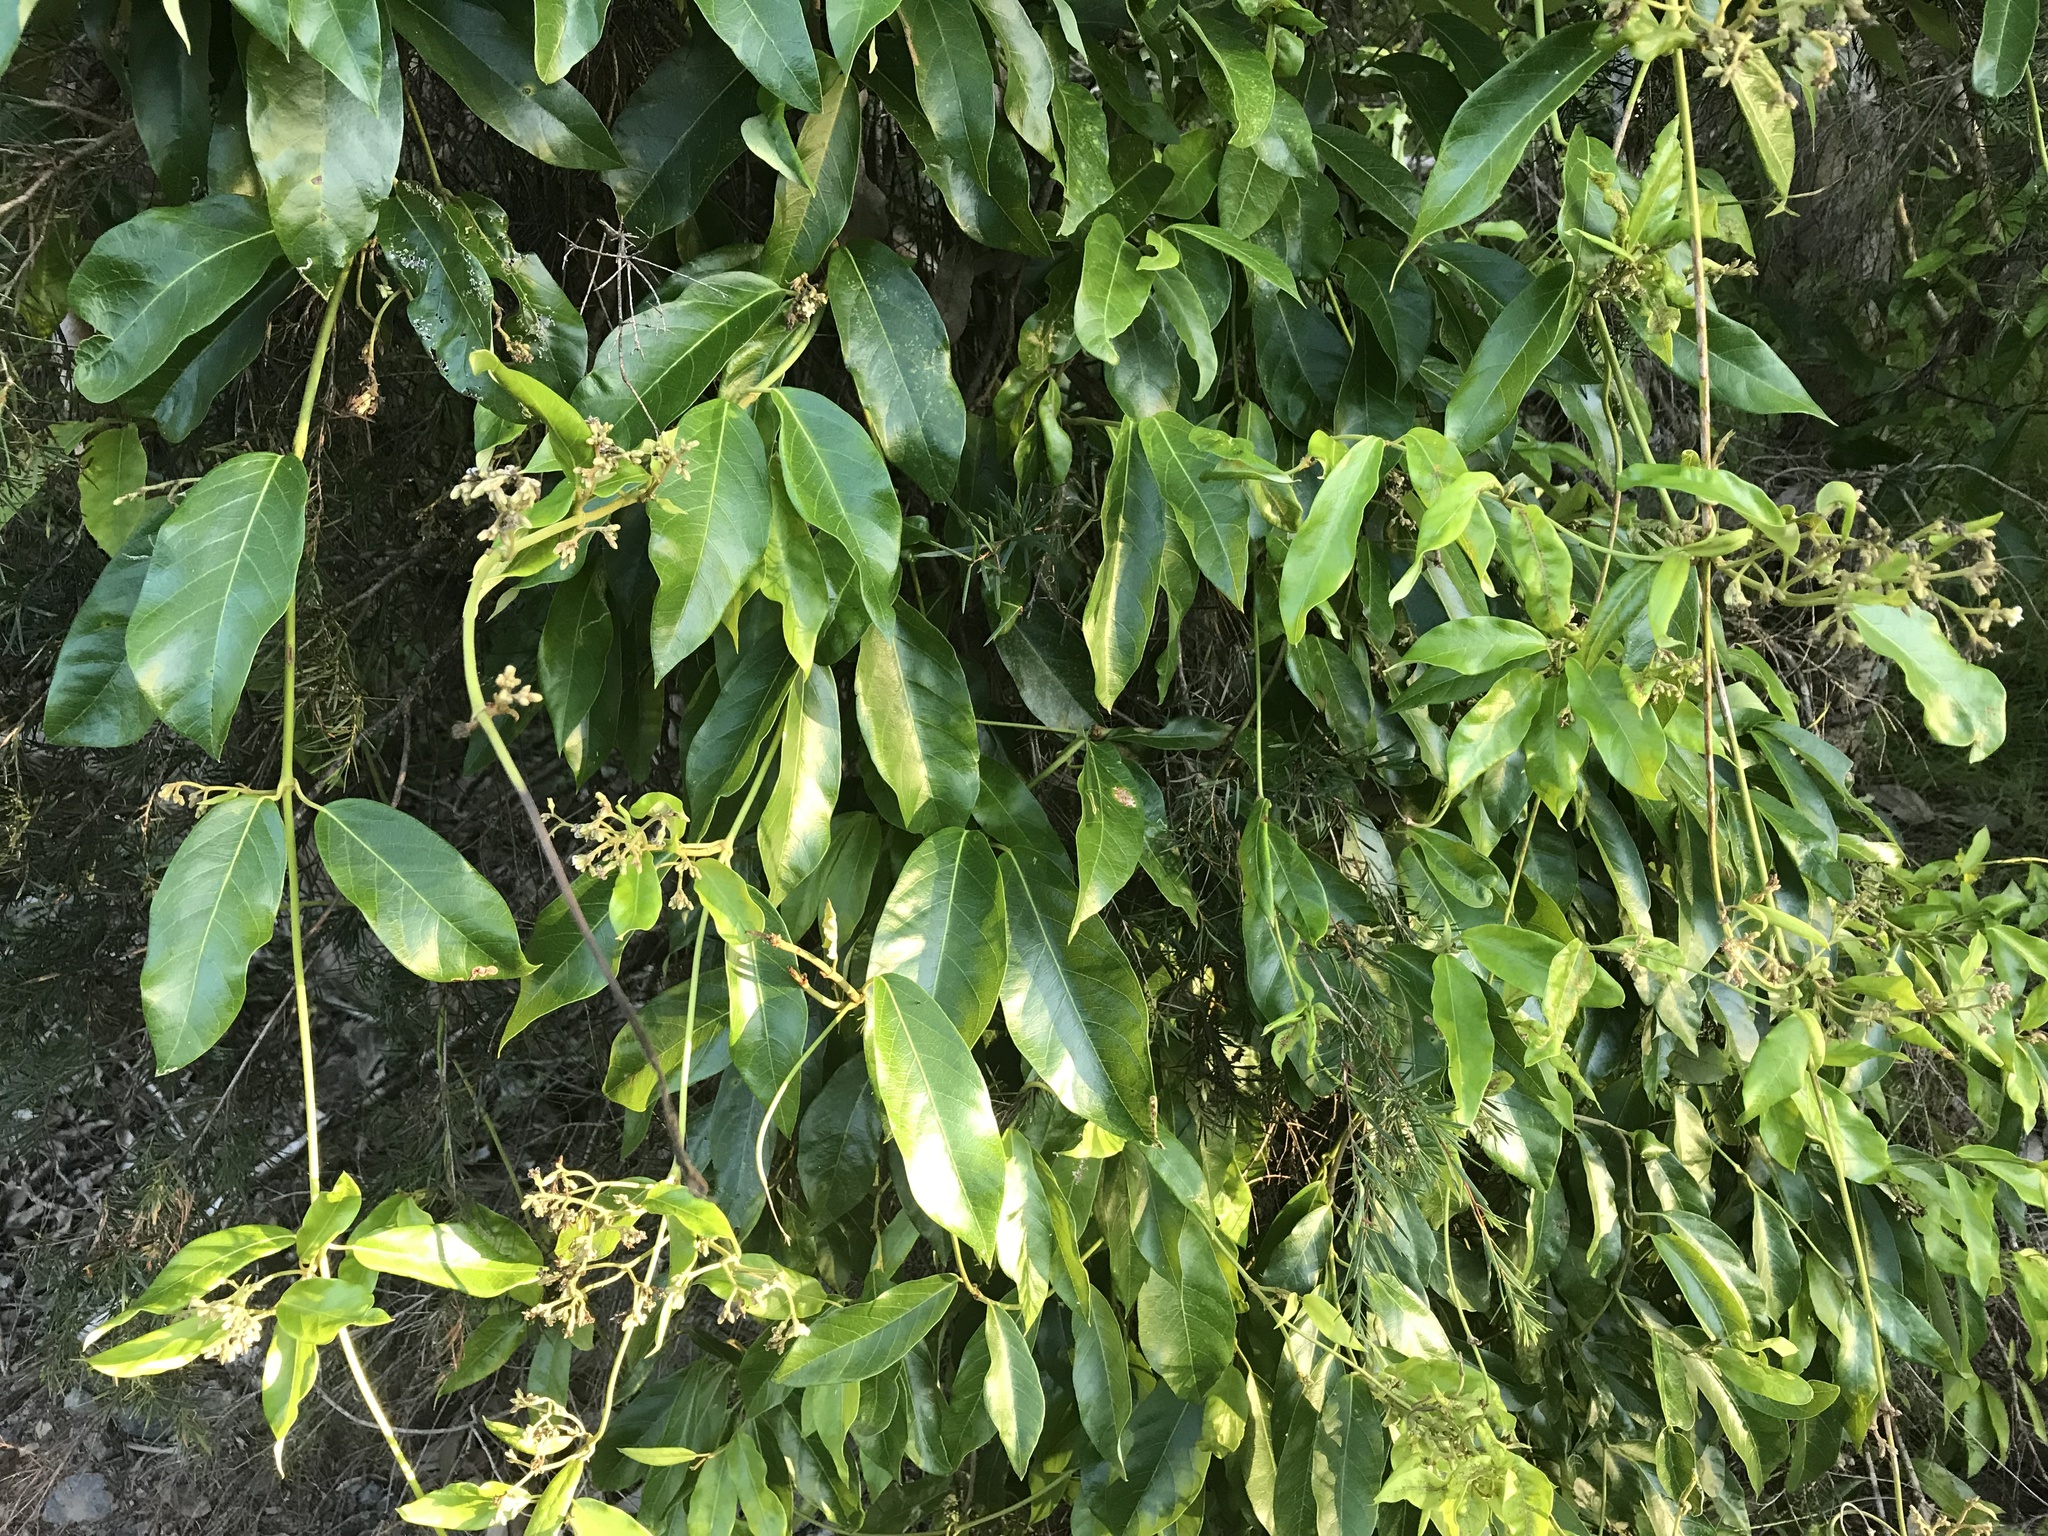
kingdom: Plantae
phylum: Tracheophyta
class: Magnoliopsida
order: Gentianales
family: Apocynaceae
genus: Parsonsia
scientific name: Parsonsia straminea
